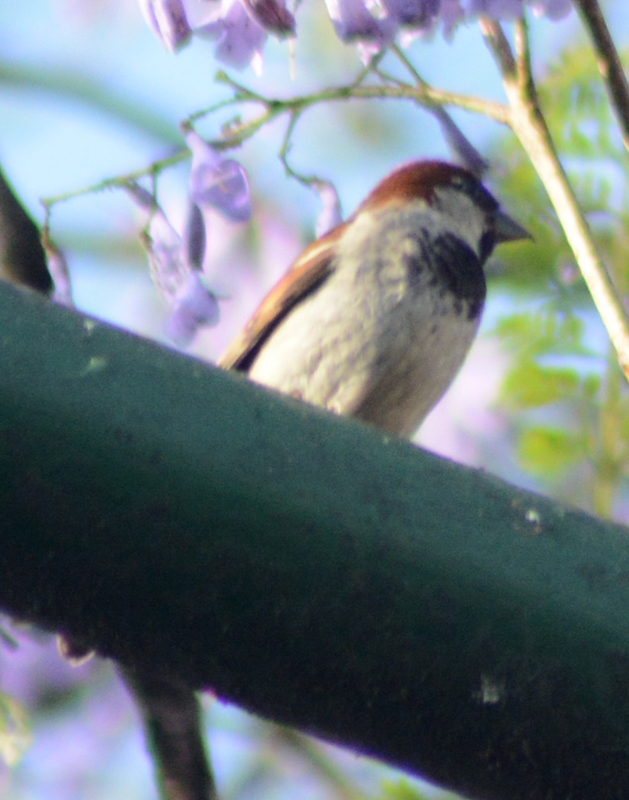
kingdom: Animalia
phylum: Chordata
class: Aves
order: Passeriformes
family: Passeridae
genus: Passer
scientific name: Passer domesticus
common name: House sparrow
